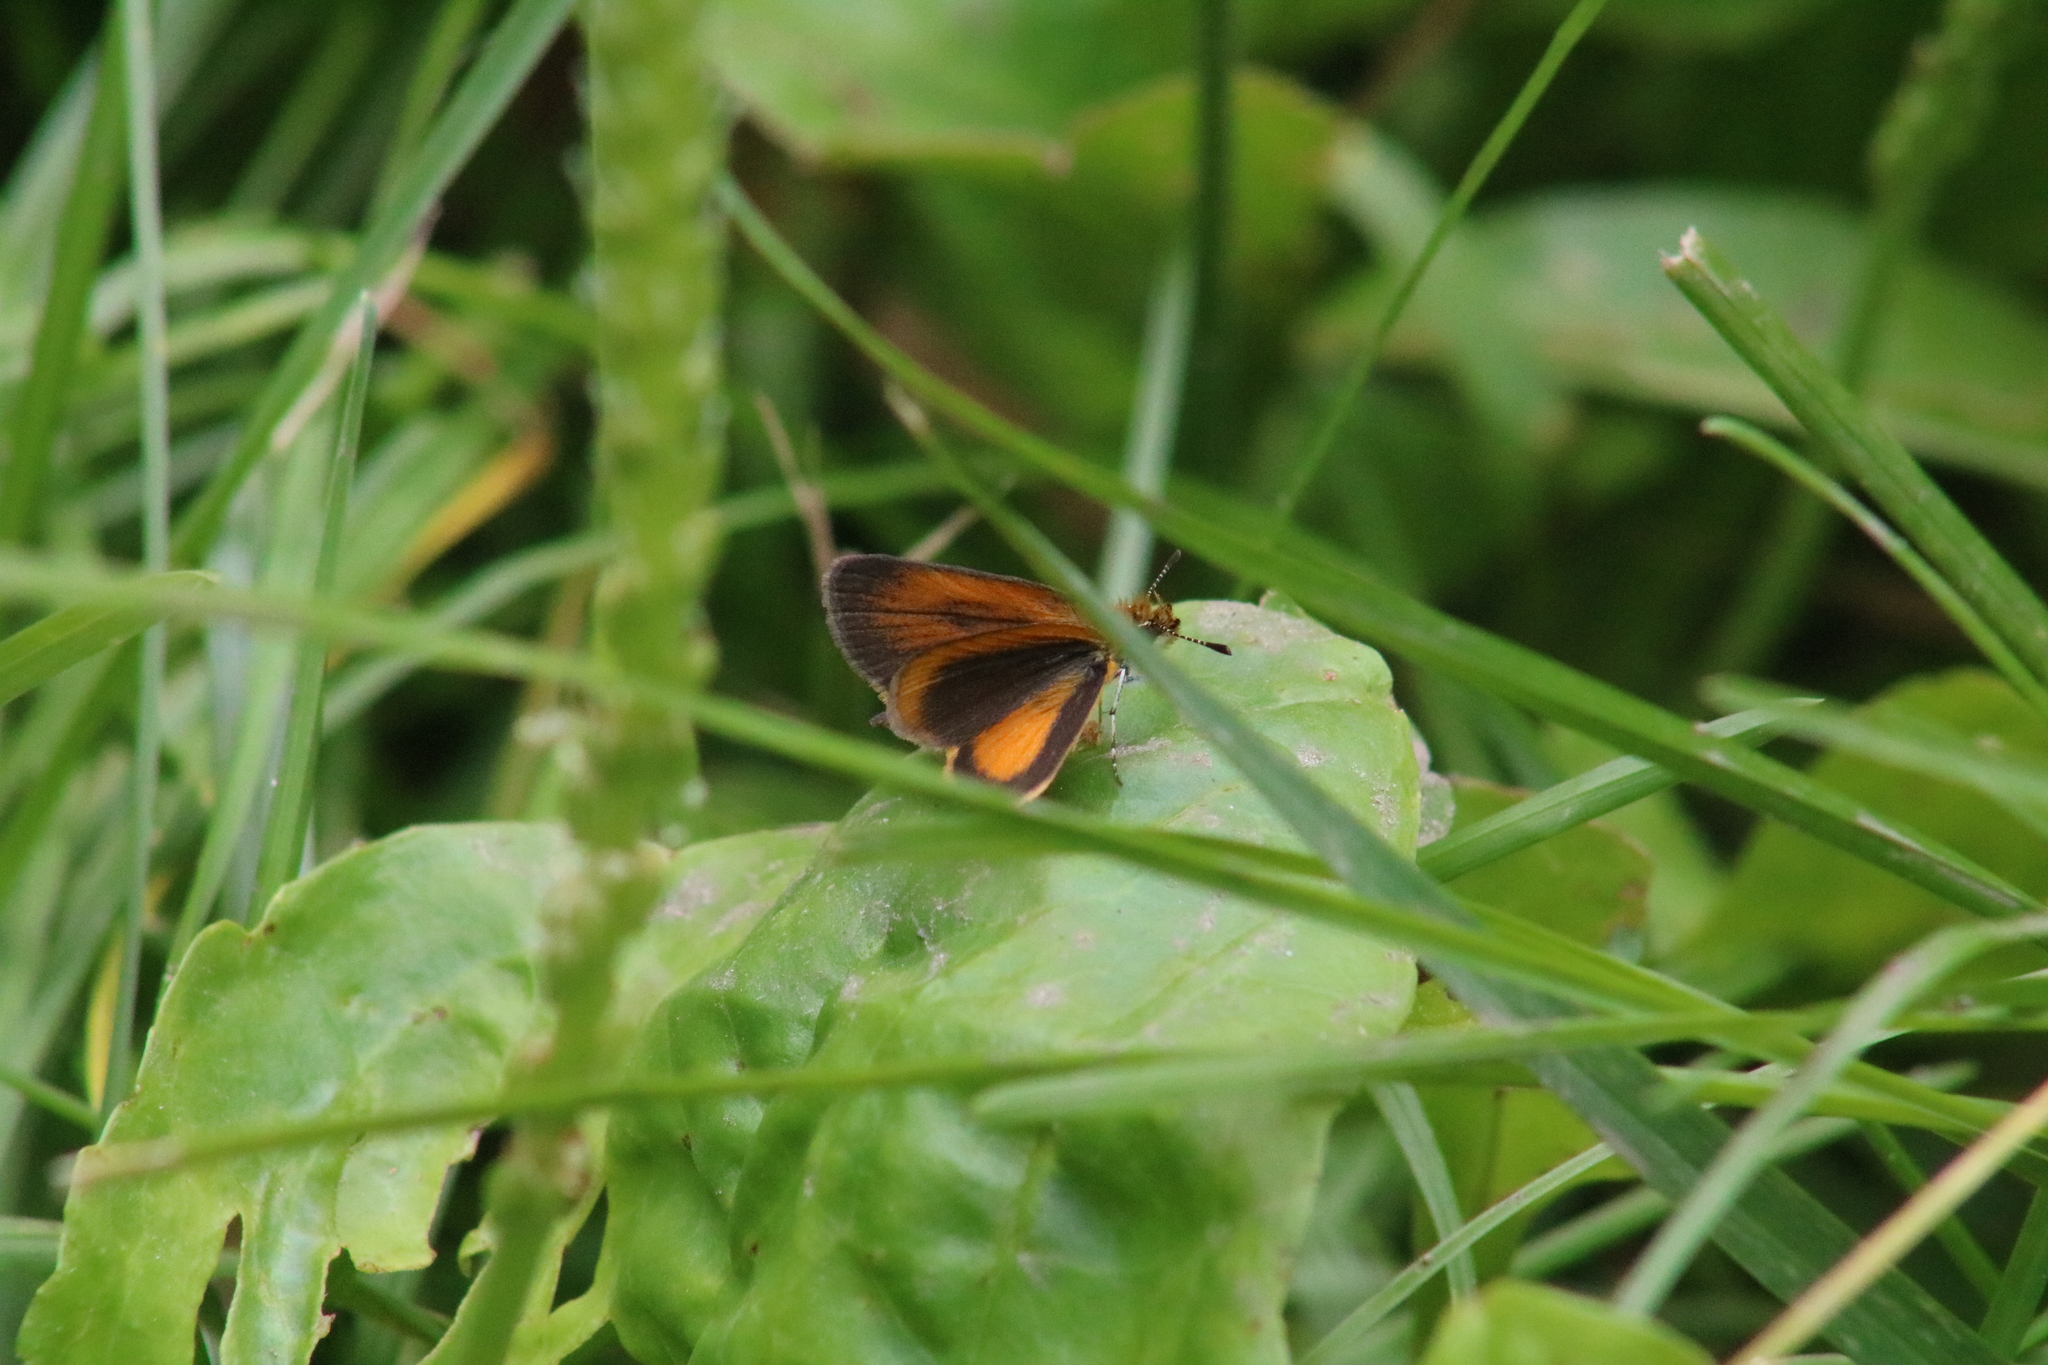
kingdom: Animalia
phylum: Arthropoda
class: Insecta
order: Lepidoptera
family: Hesperiidae
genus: Ancyloxypha
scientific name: Ancyloxypha numitor
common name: Least skipper
